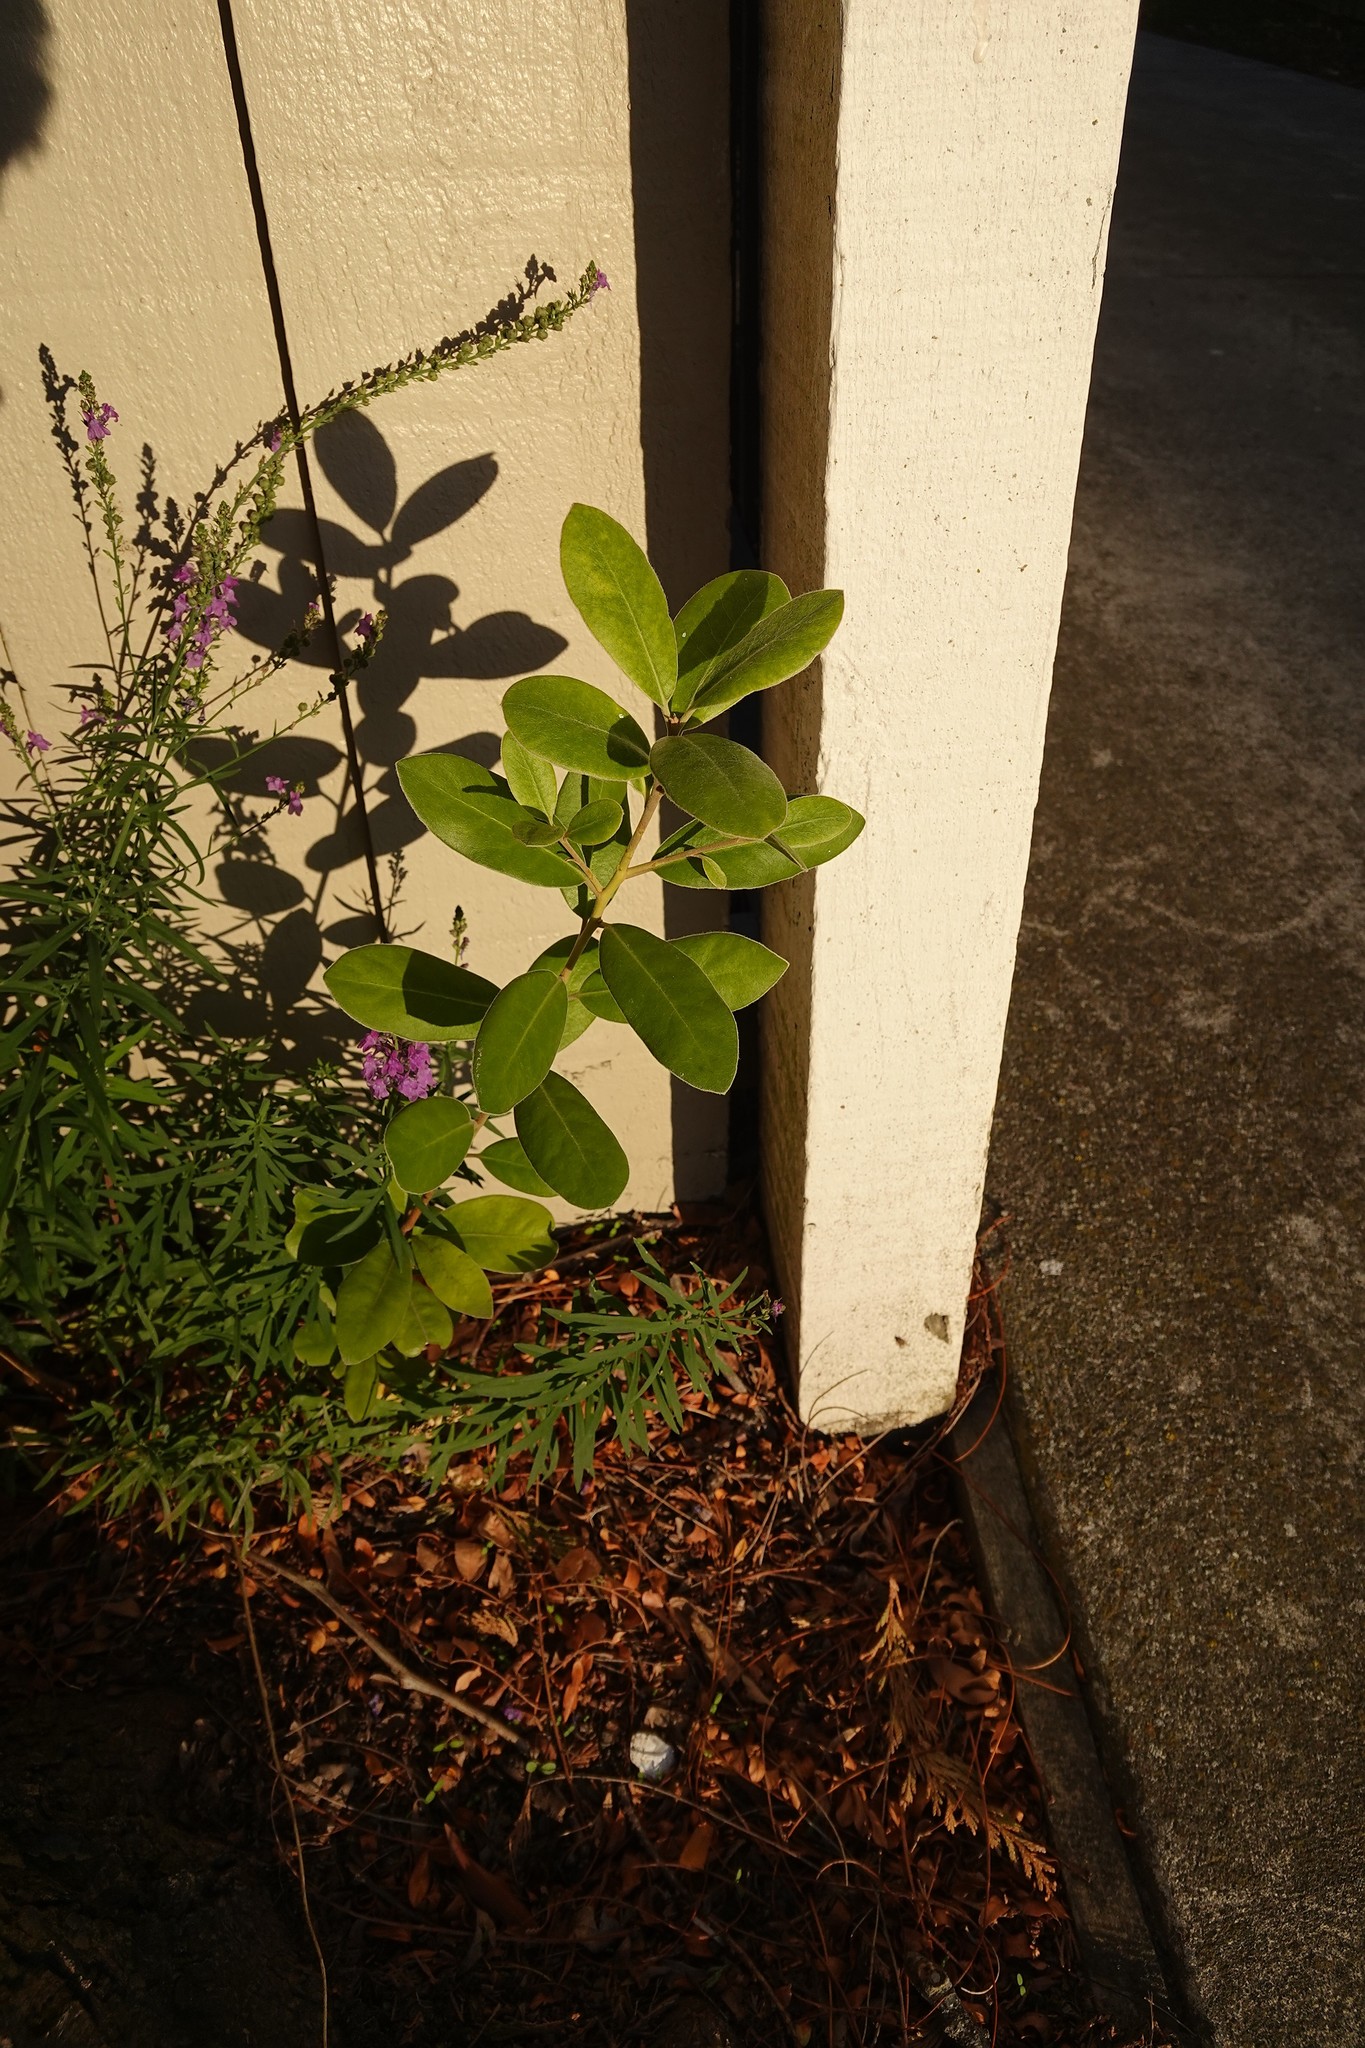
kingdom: Plantae
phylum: Tracheophyta
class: Magnoliopsida
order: Lamiales
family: Plantaginaceae
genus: Linaria
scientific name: Linaria purpurea
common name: Purple toadflax
